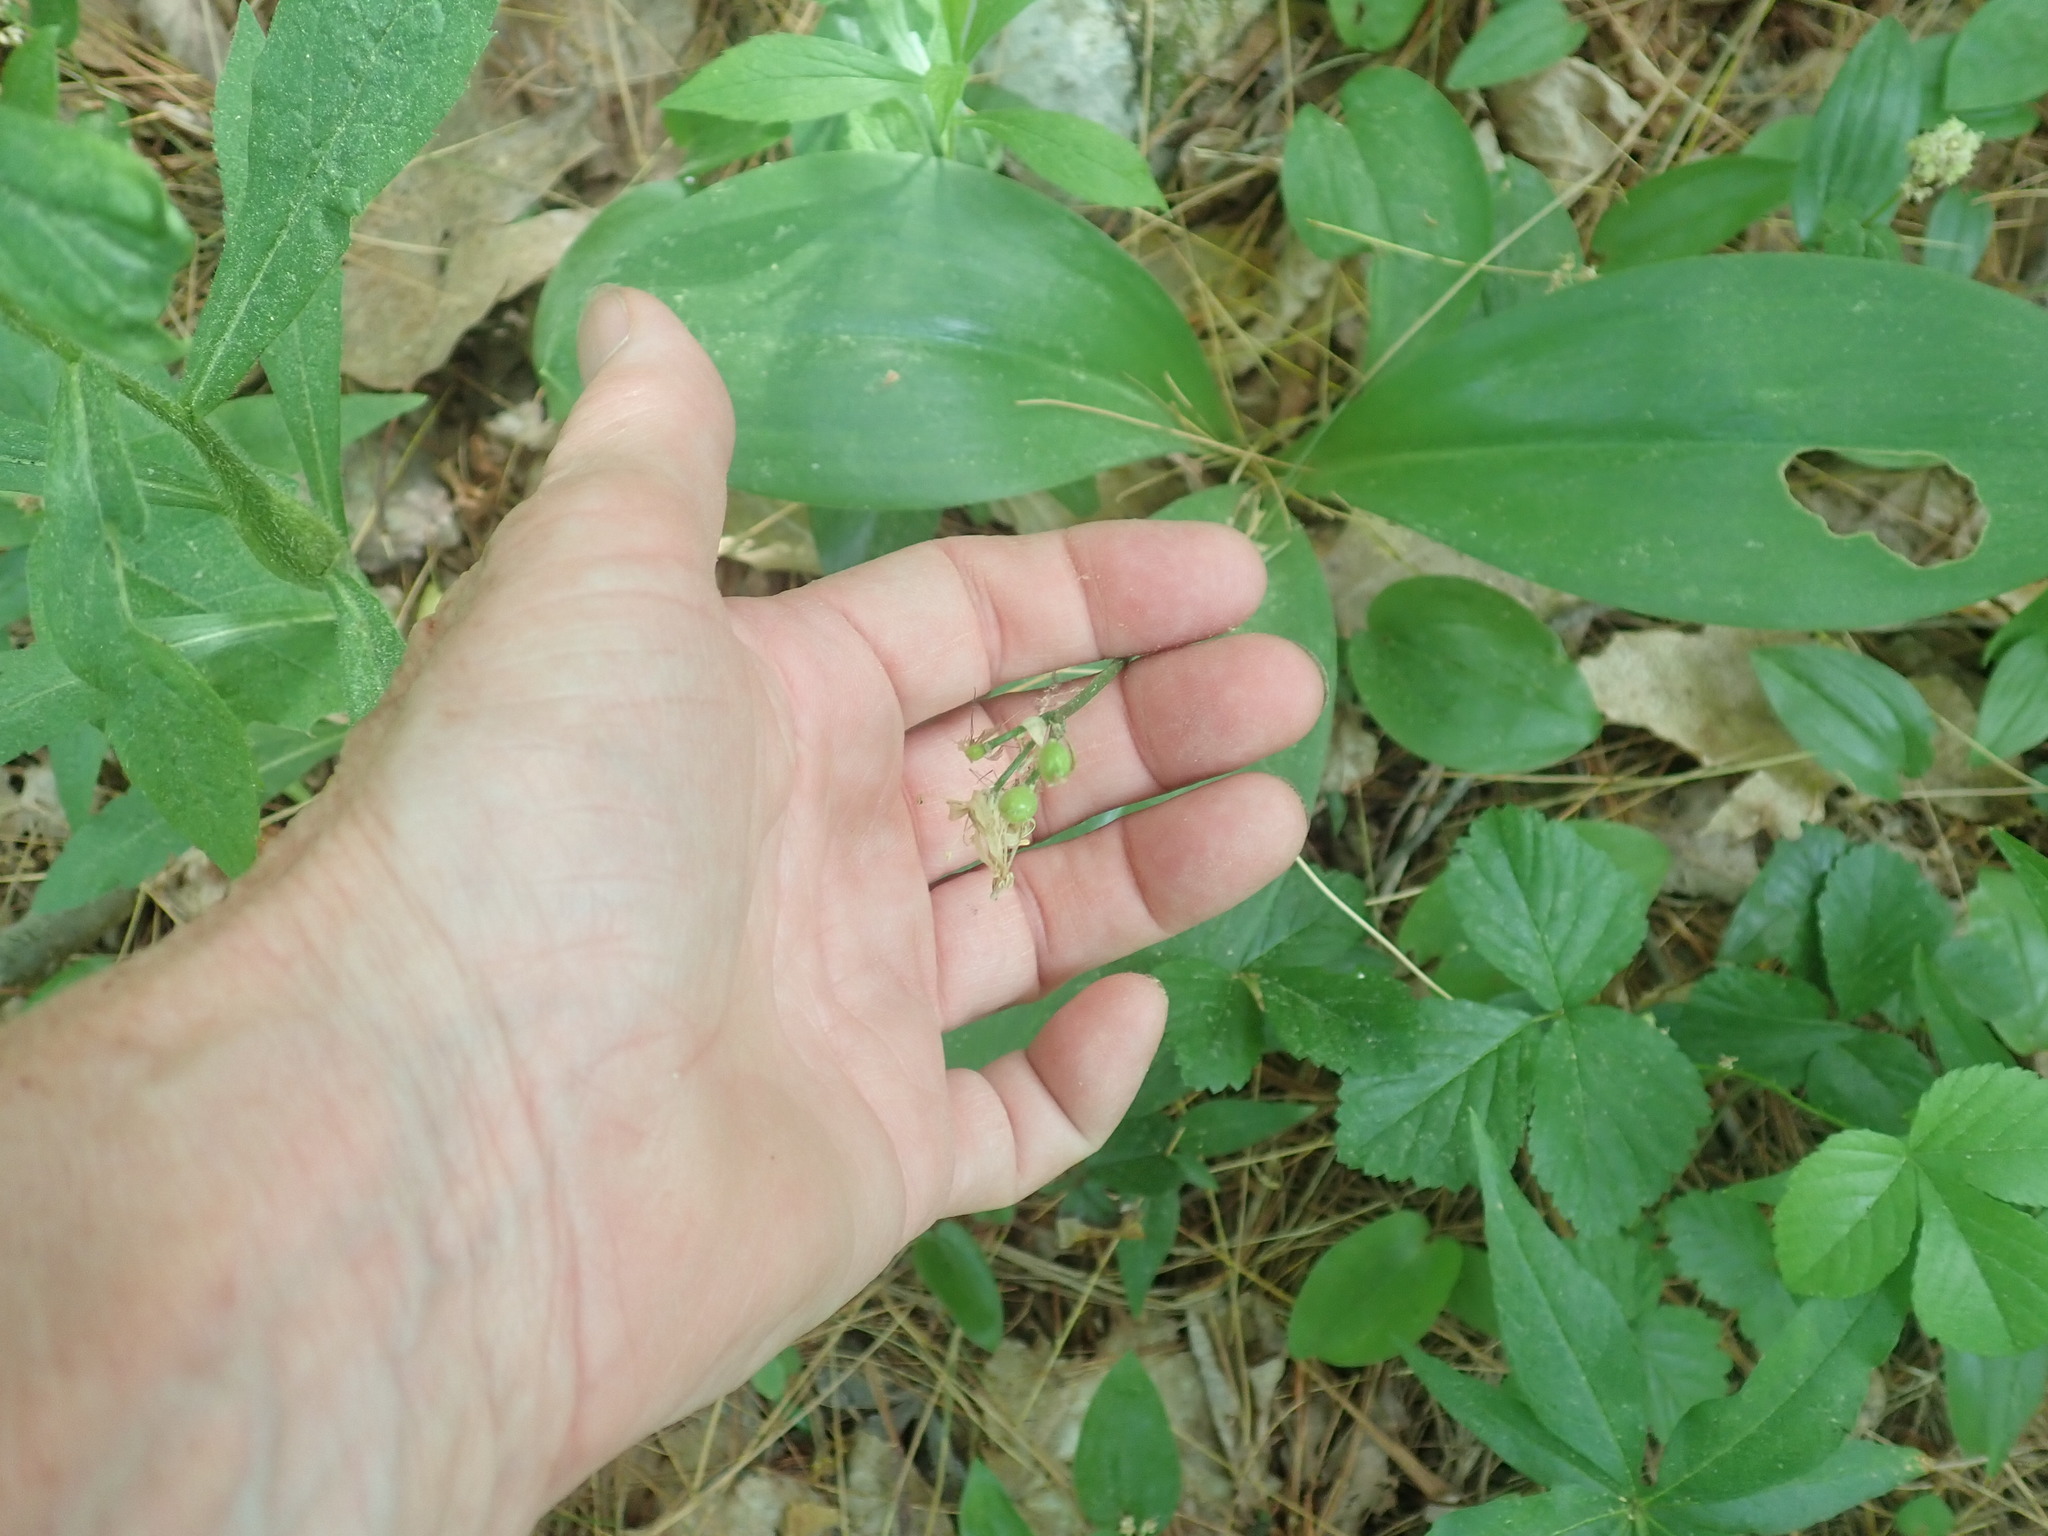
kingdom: Plantae
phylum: Tracheophyta
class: Liliopsida
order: Liliales
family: Liliaceae
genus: Clintonia
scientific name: Clintonia borealis
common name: Yellow clintonia
